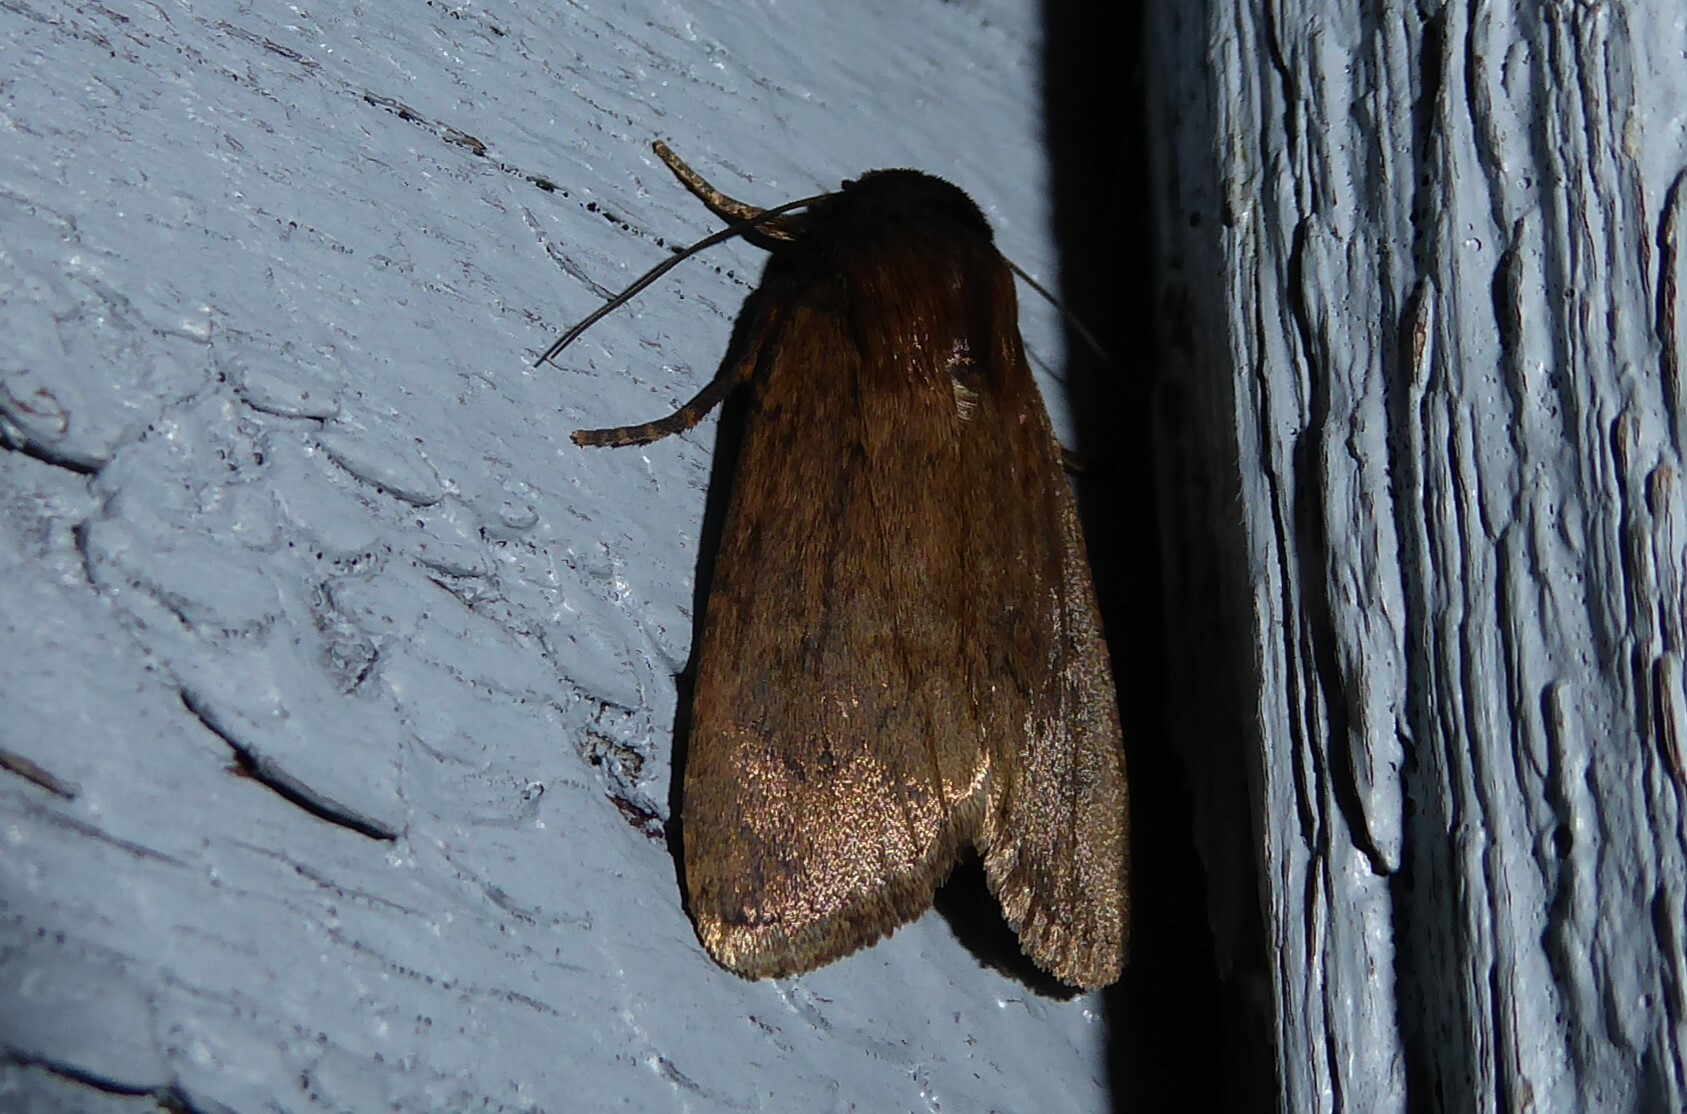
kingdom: Animalia
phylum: Arthropoda
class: Insecta
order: Lepidoptera
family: Noctuidae
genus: Bityla
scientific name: Bityla defigurata
